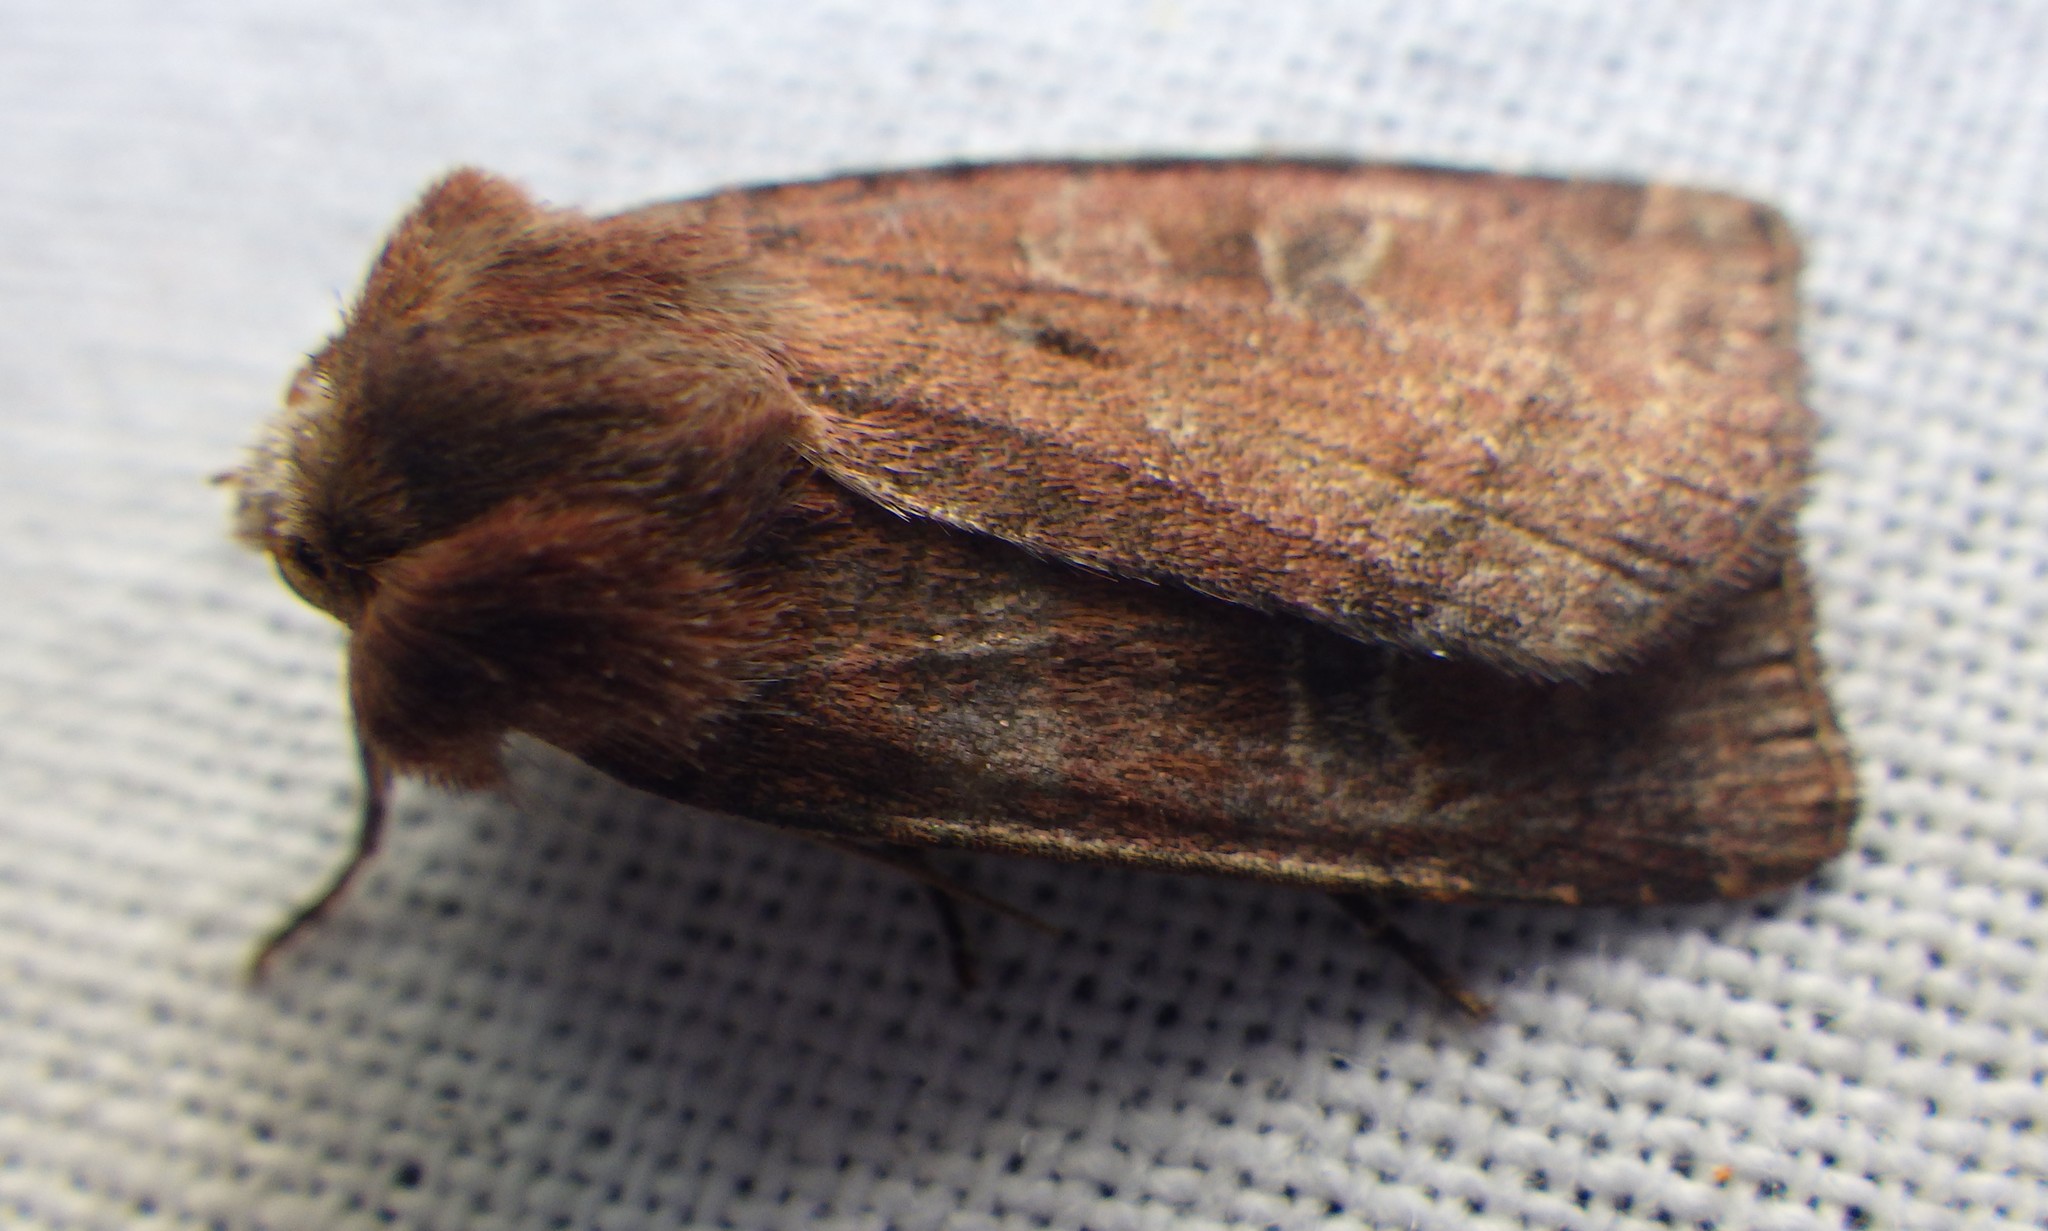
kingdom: Animalia
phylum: Arthropoda
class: Insecta
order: Lepidoptera
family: Noctuidae
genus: Xestia
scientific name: Xestia xanthographa
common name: Square-spot rustic
